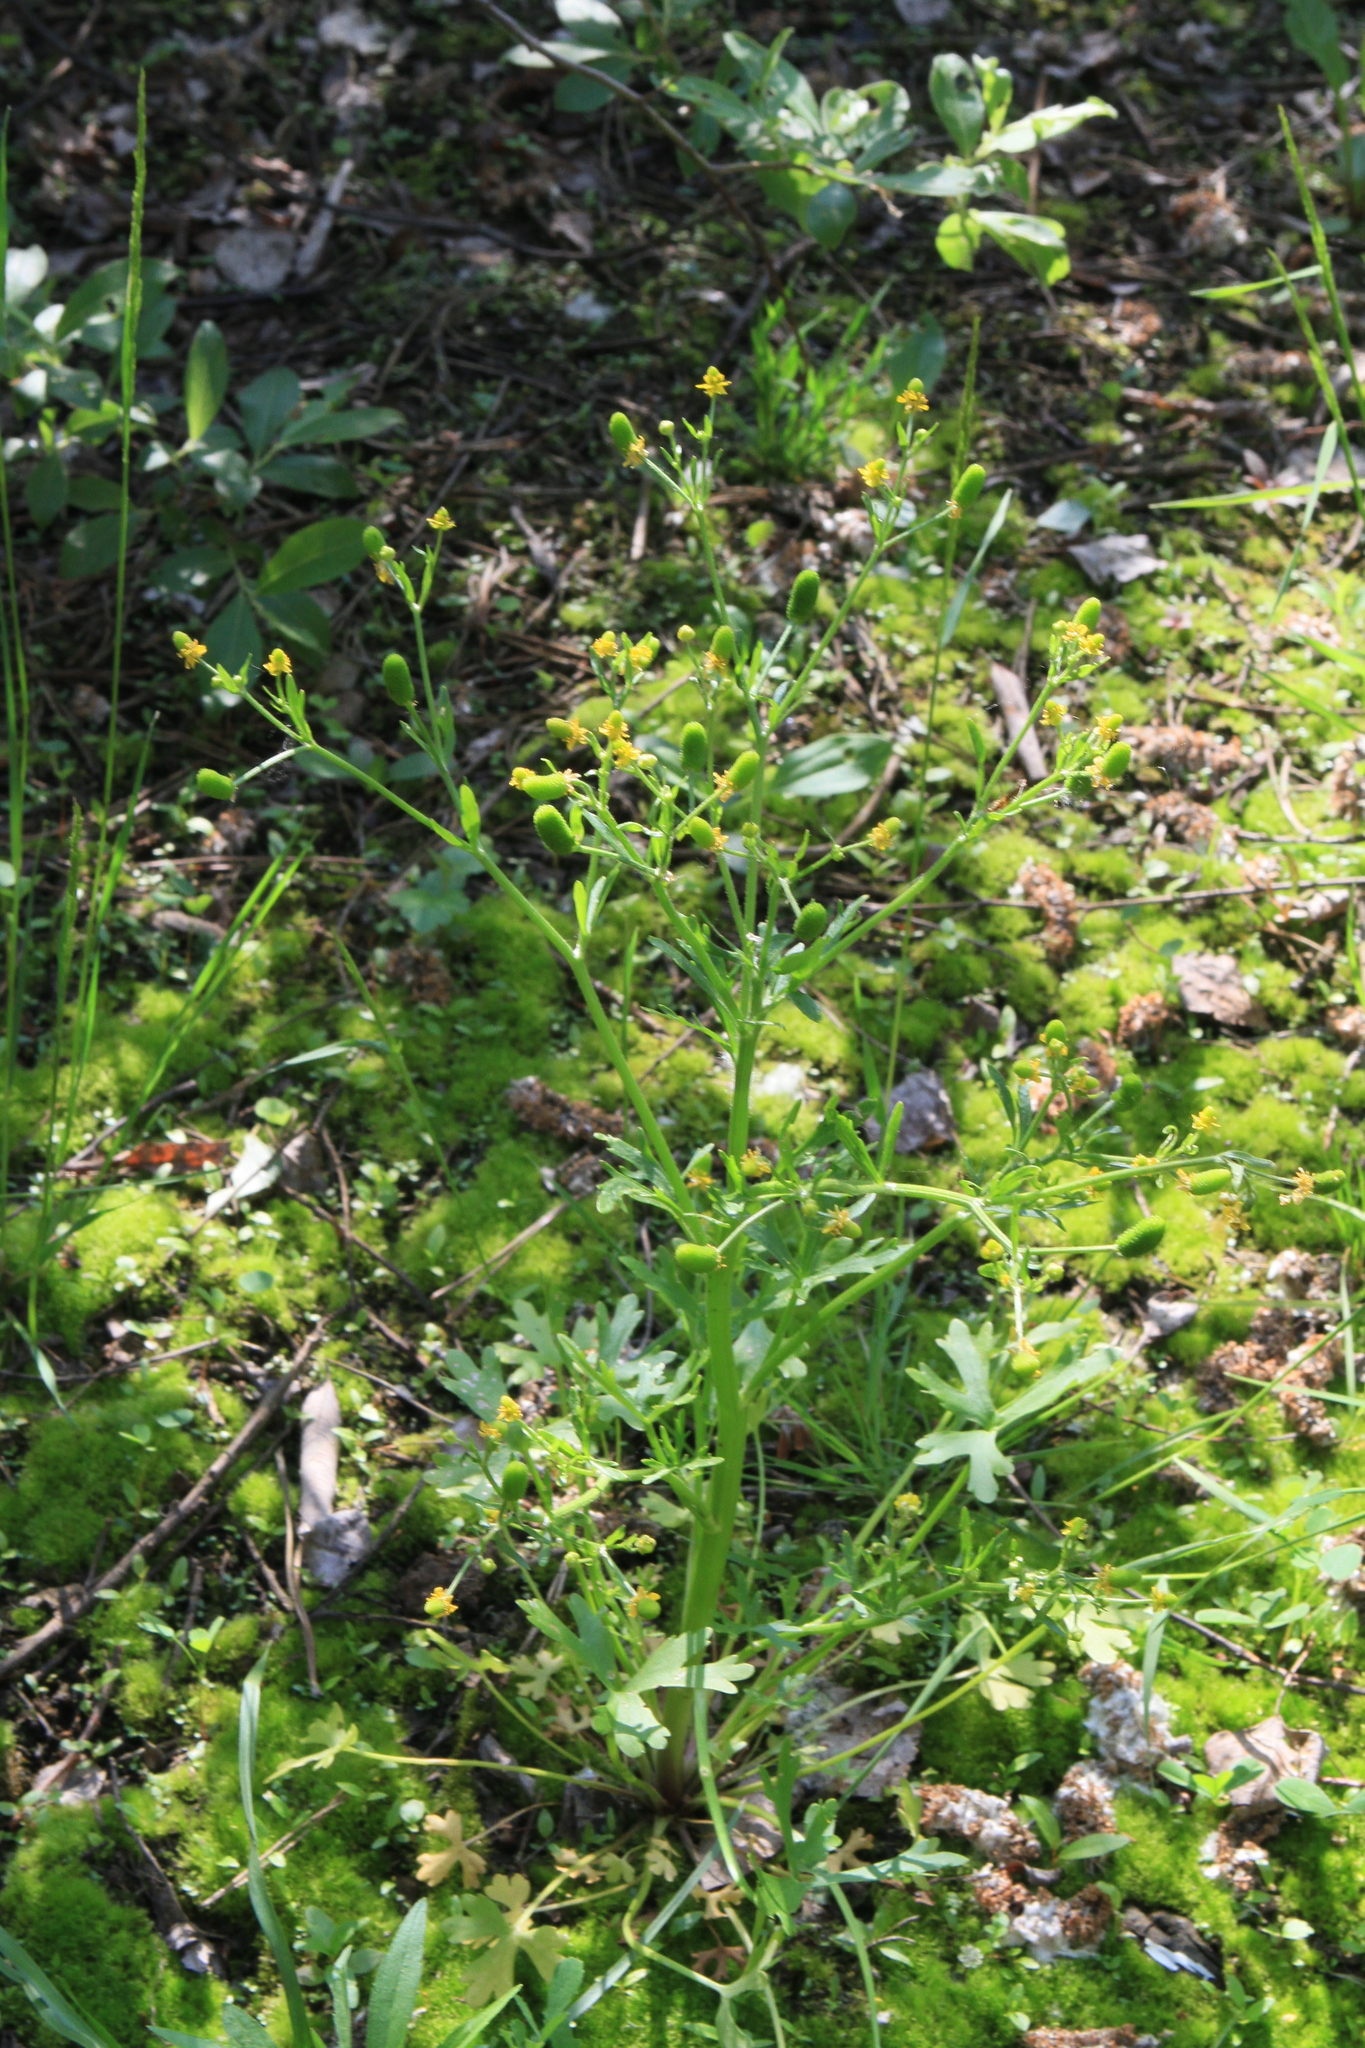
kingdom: Plantae
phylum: Tracheophyta
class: Magnoliopsida
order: Ranunculales
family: Ranunculaceae
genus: Ranunculus
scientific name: Ranunculus sceleratus
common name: Celery-leaved buttercup
